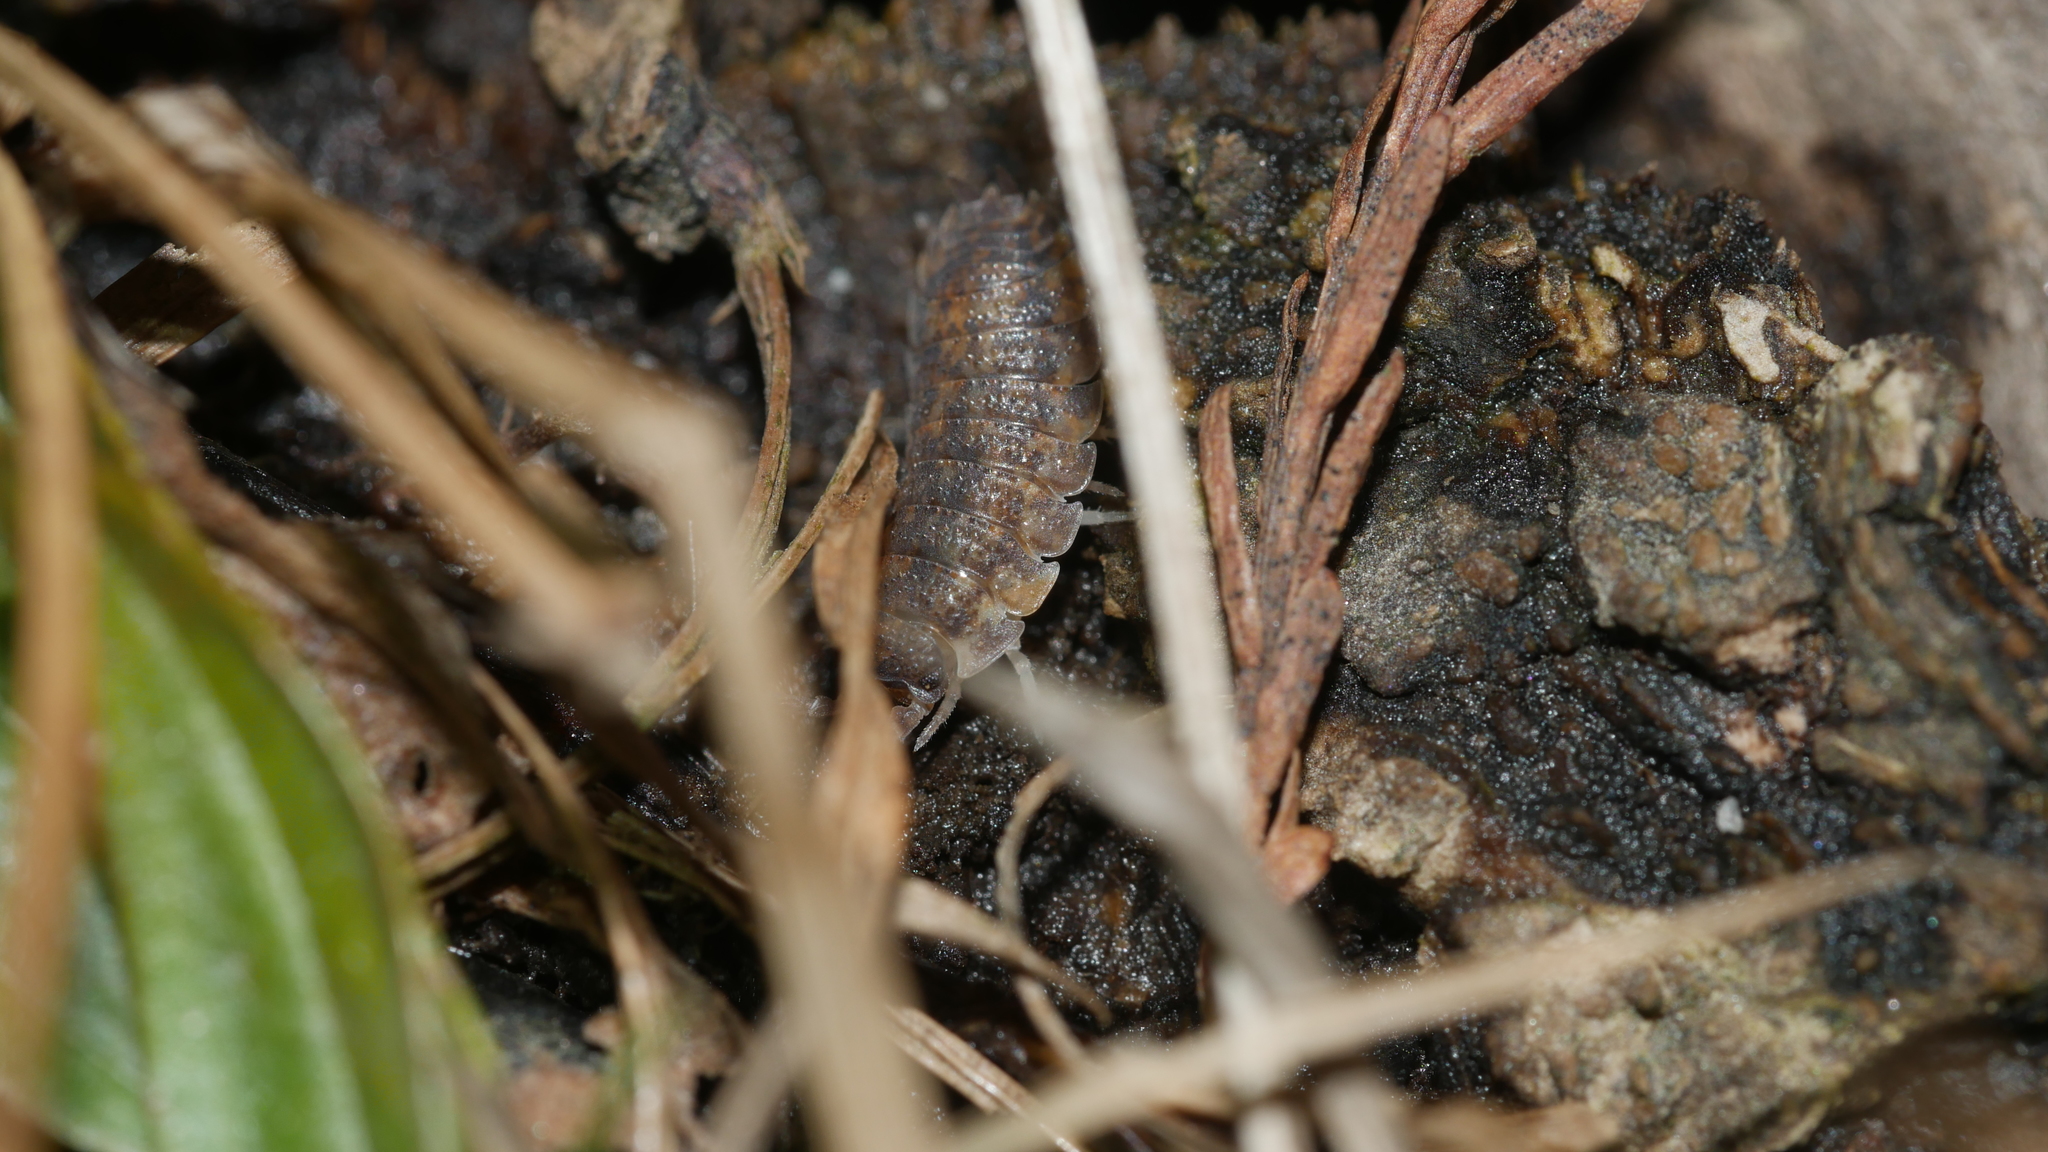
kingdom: Animalia
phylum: Arthropoda
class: Malacostraca
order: Isopoda
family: Porcellionidae
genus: Porcellio
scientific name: Porcellio scaber
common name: Common rough woodlouse
